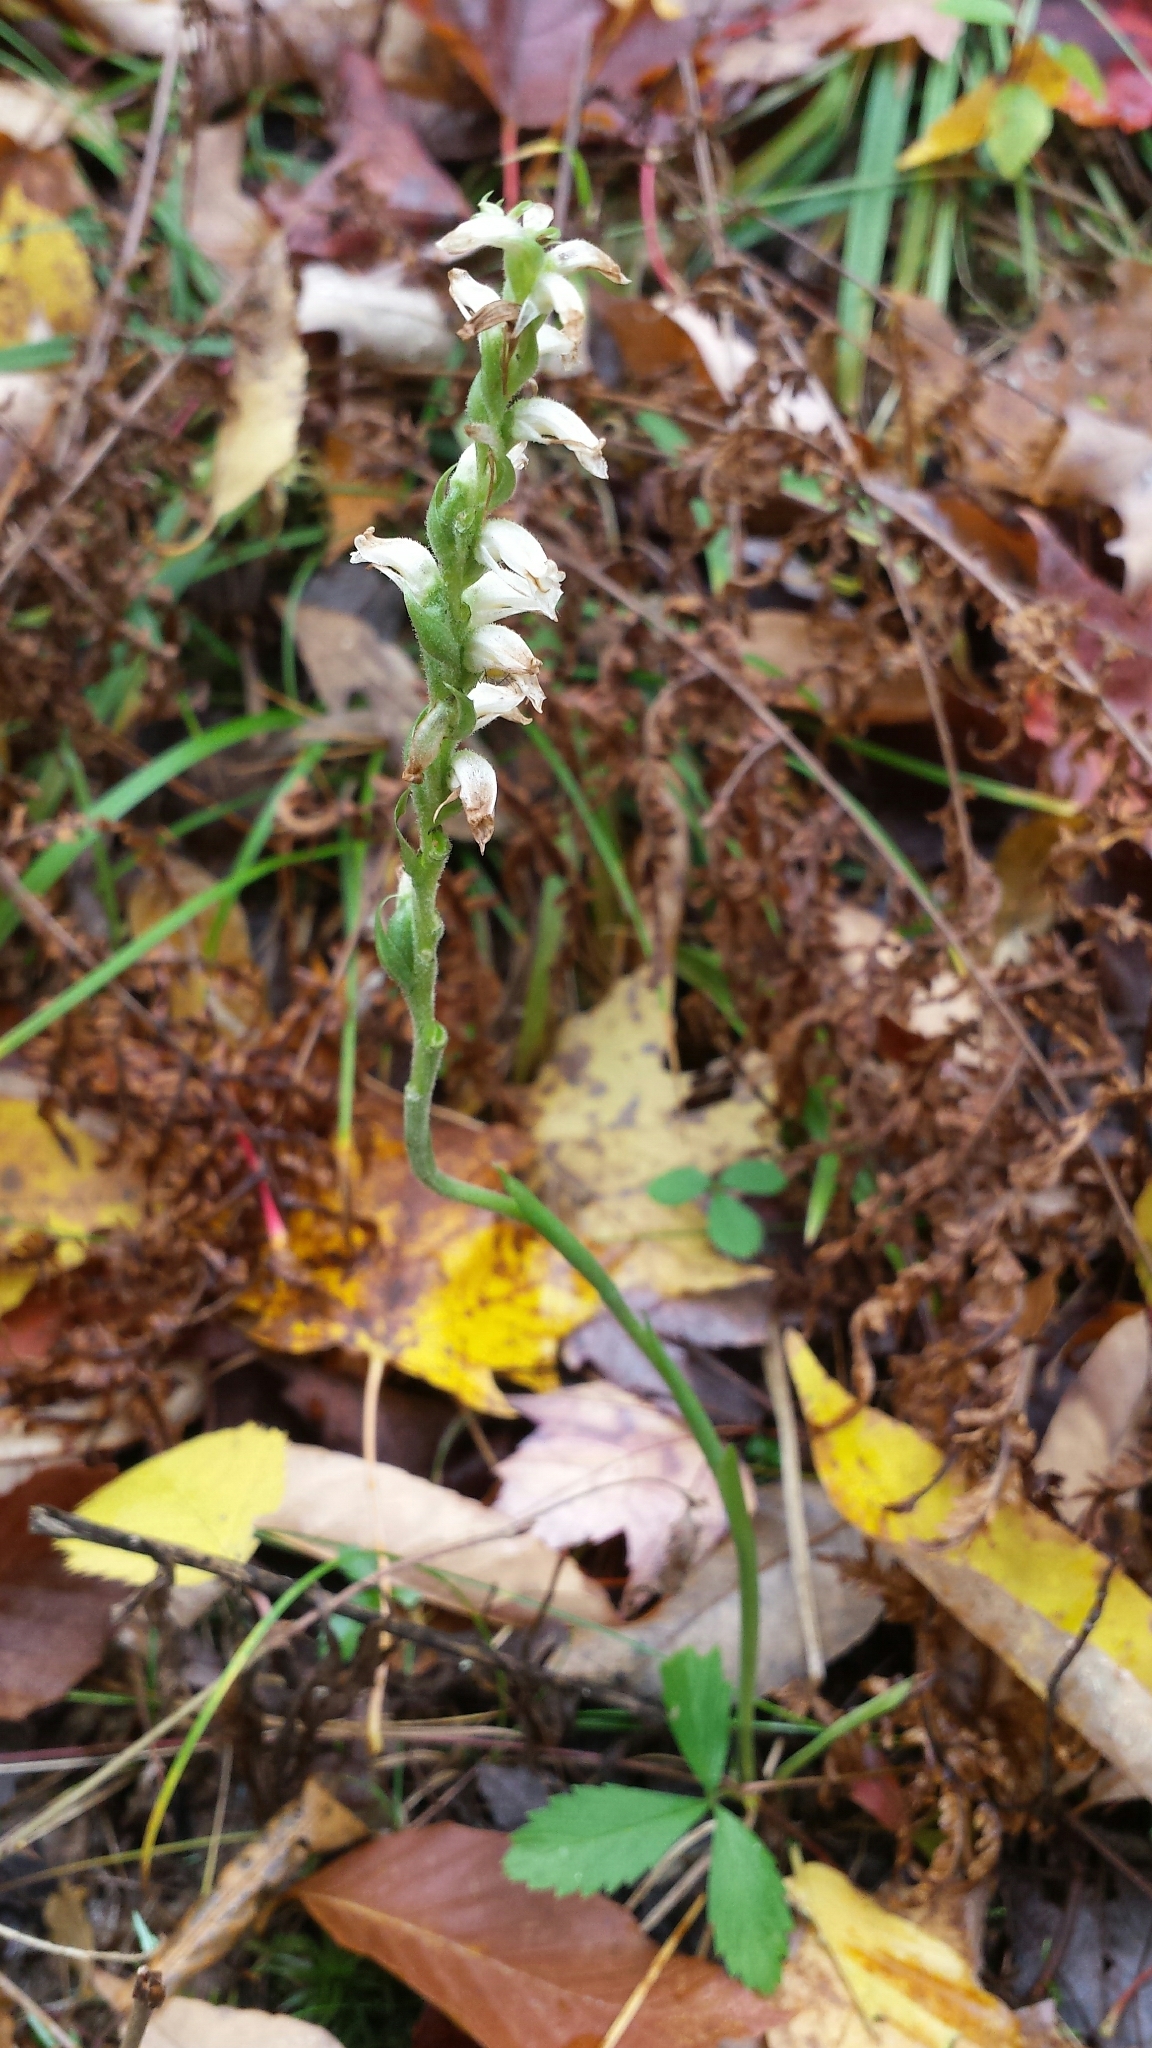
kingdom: Plantae
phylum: Tracheophyta
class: Liliopsida
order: Asparagales
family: Orchidaceae
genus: Spiranthes
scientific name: Spiranthes ochroleuca
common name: Yellow ladies'-tresses
